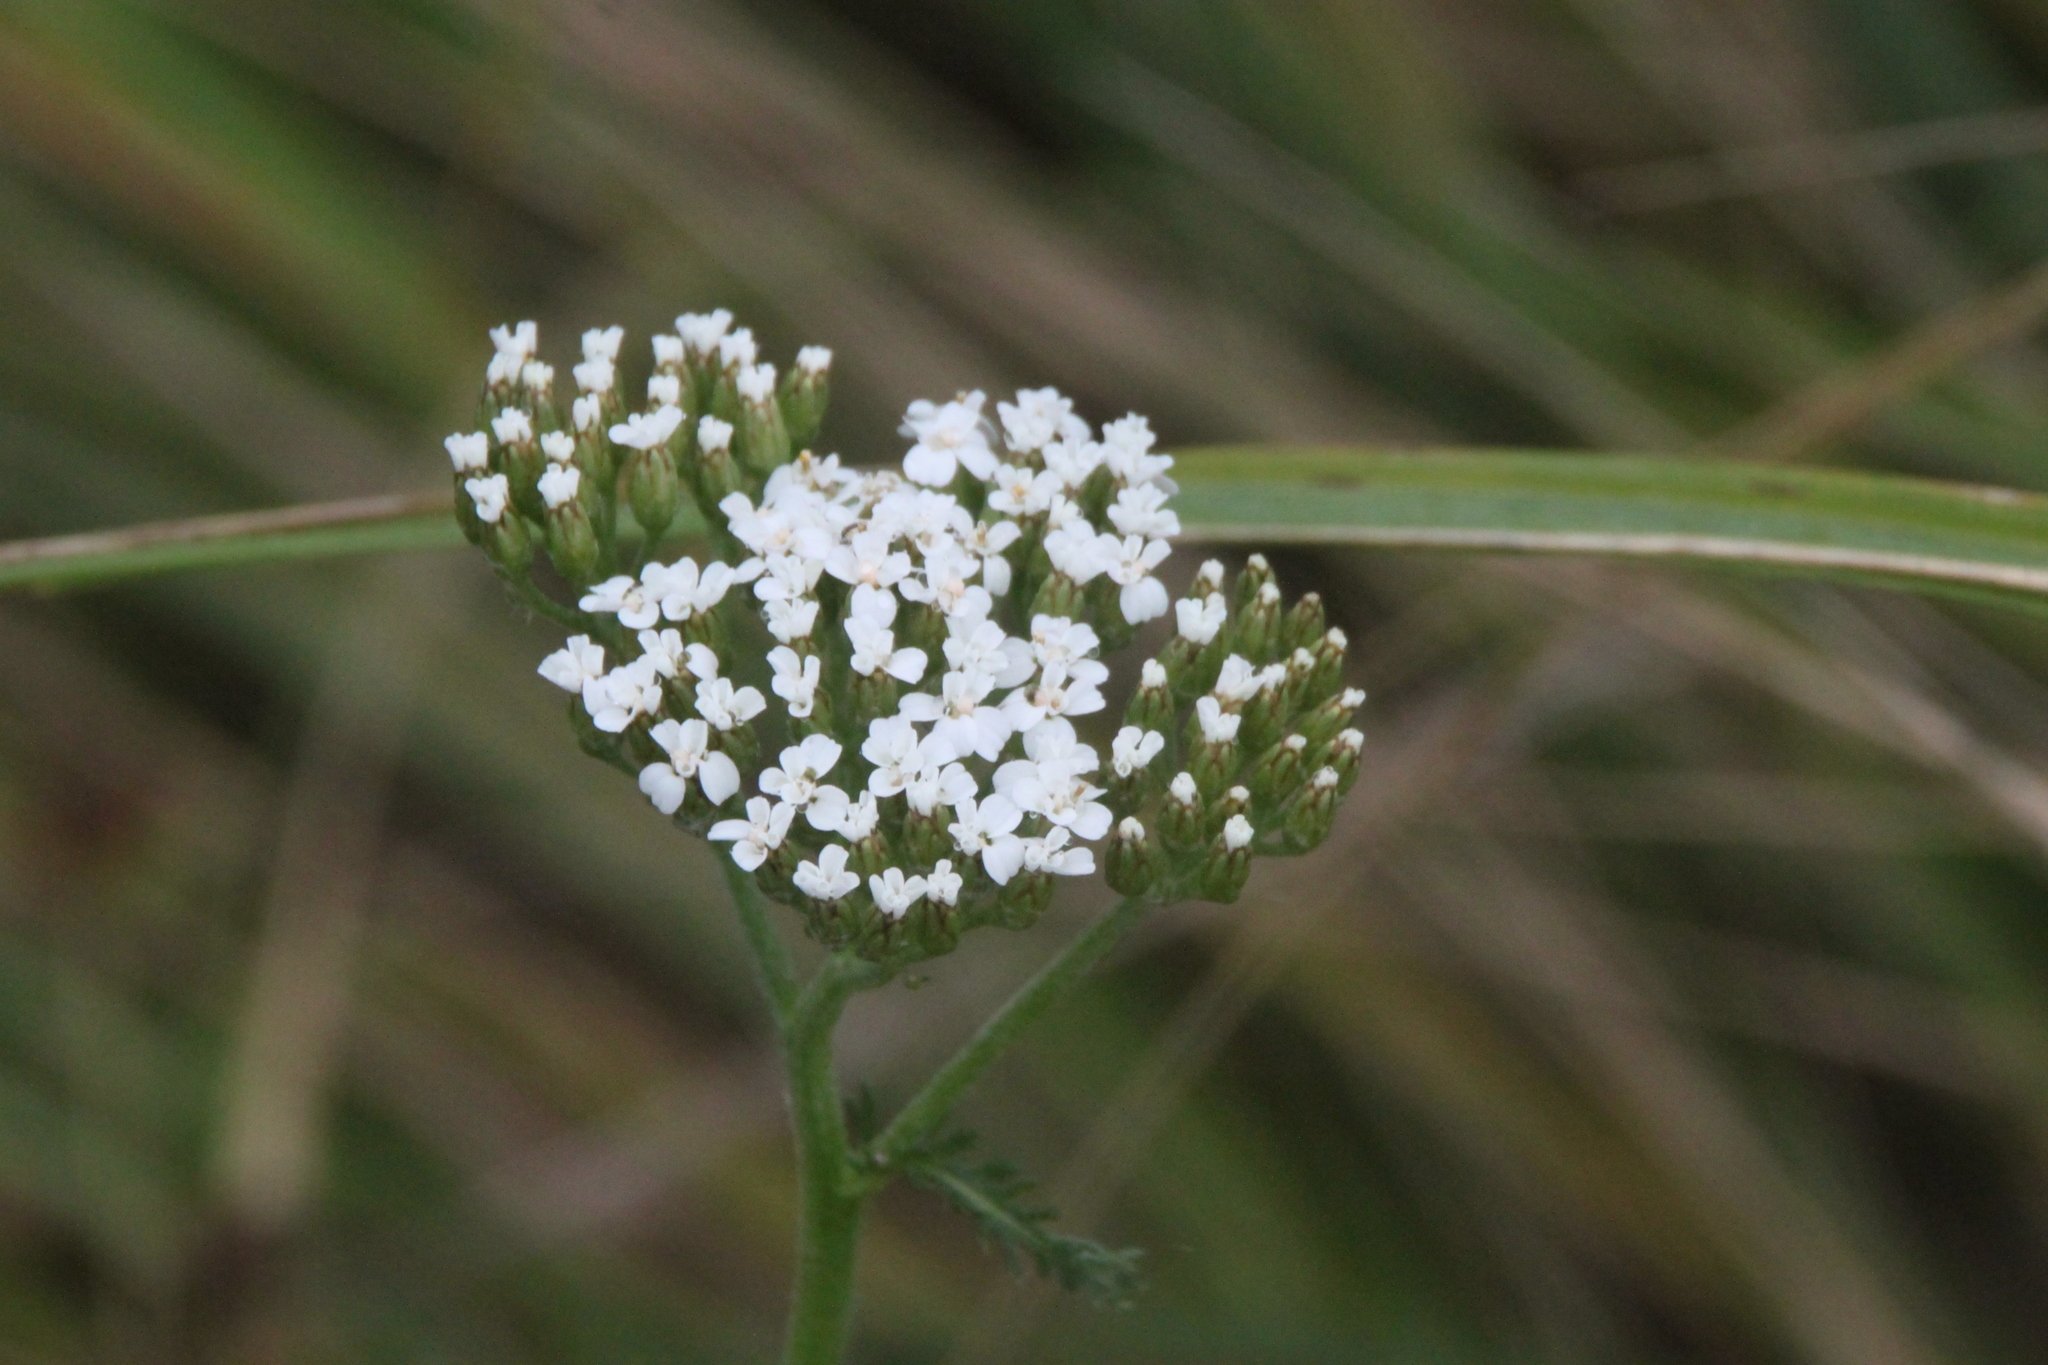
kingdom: Plantae
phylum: Tracheophyta
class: Magnoliopsida
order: Asterales
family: Asteraceae
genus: Achillea
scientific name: Achillea millefolium
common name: Yarrow
